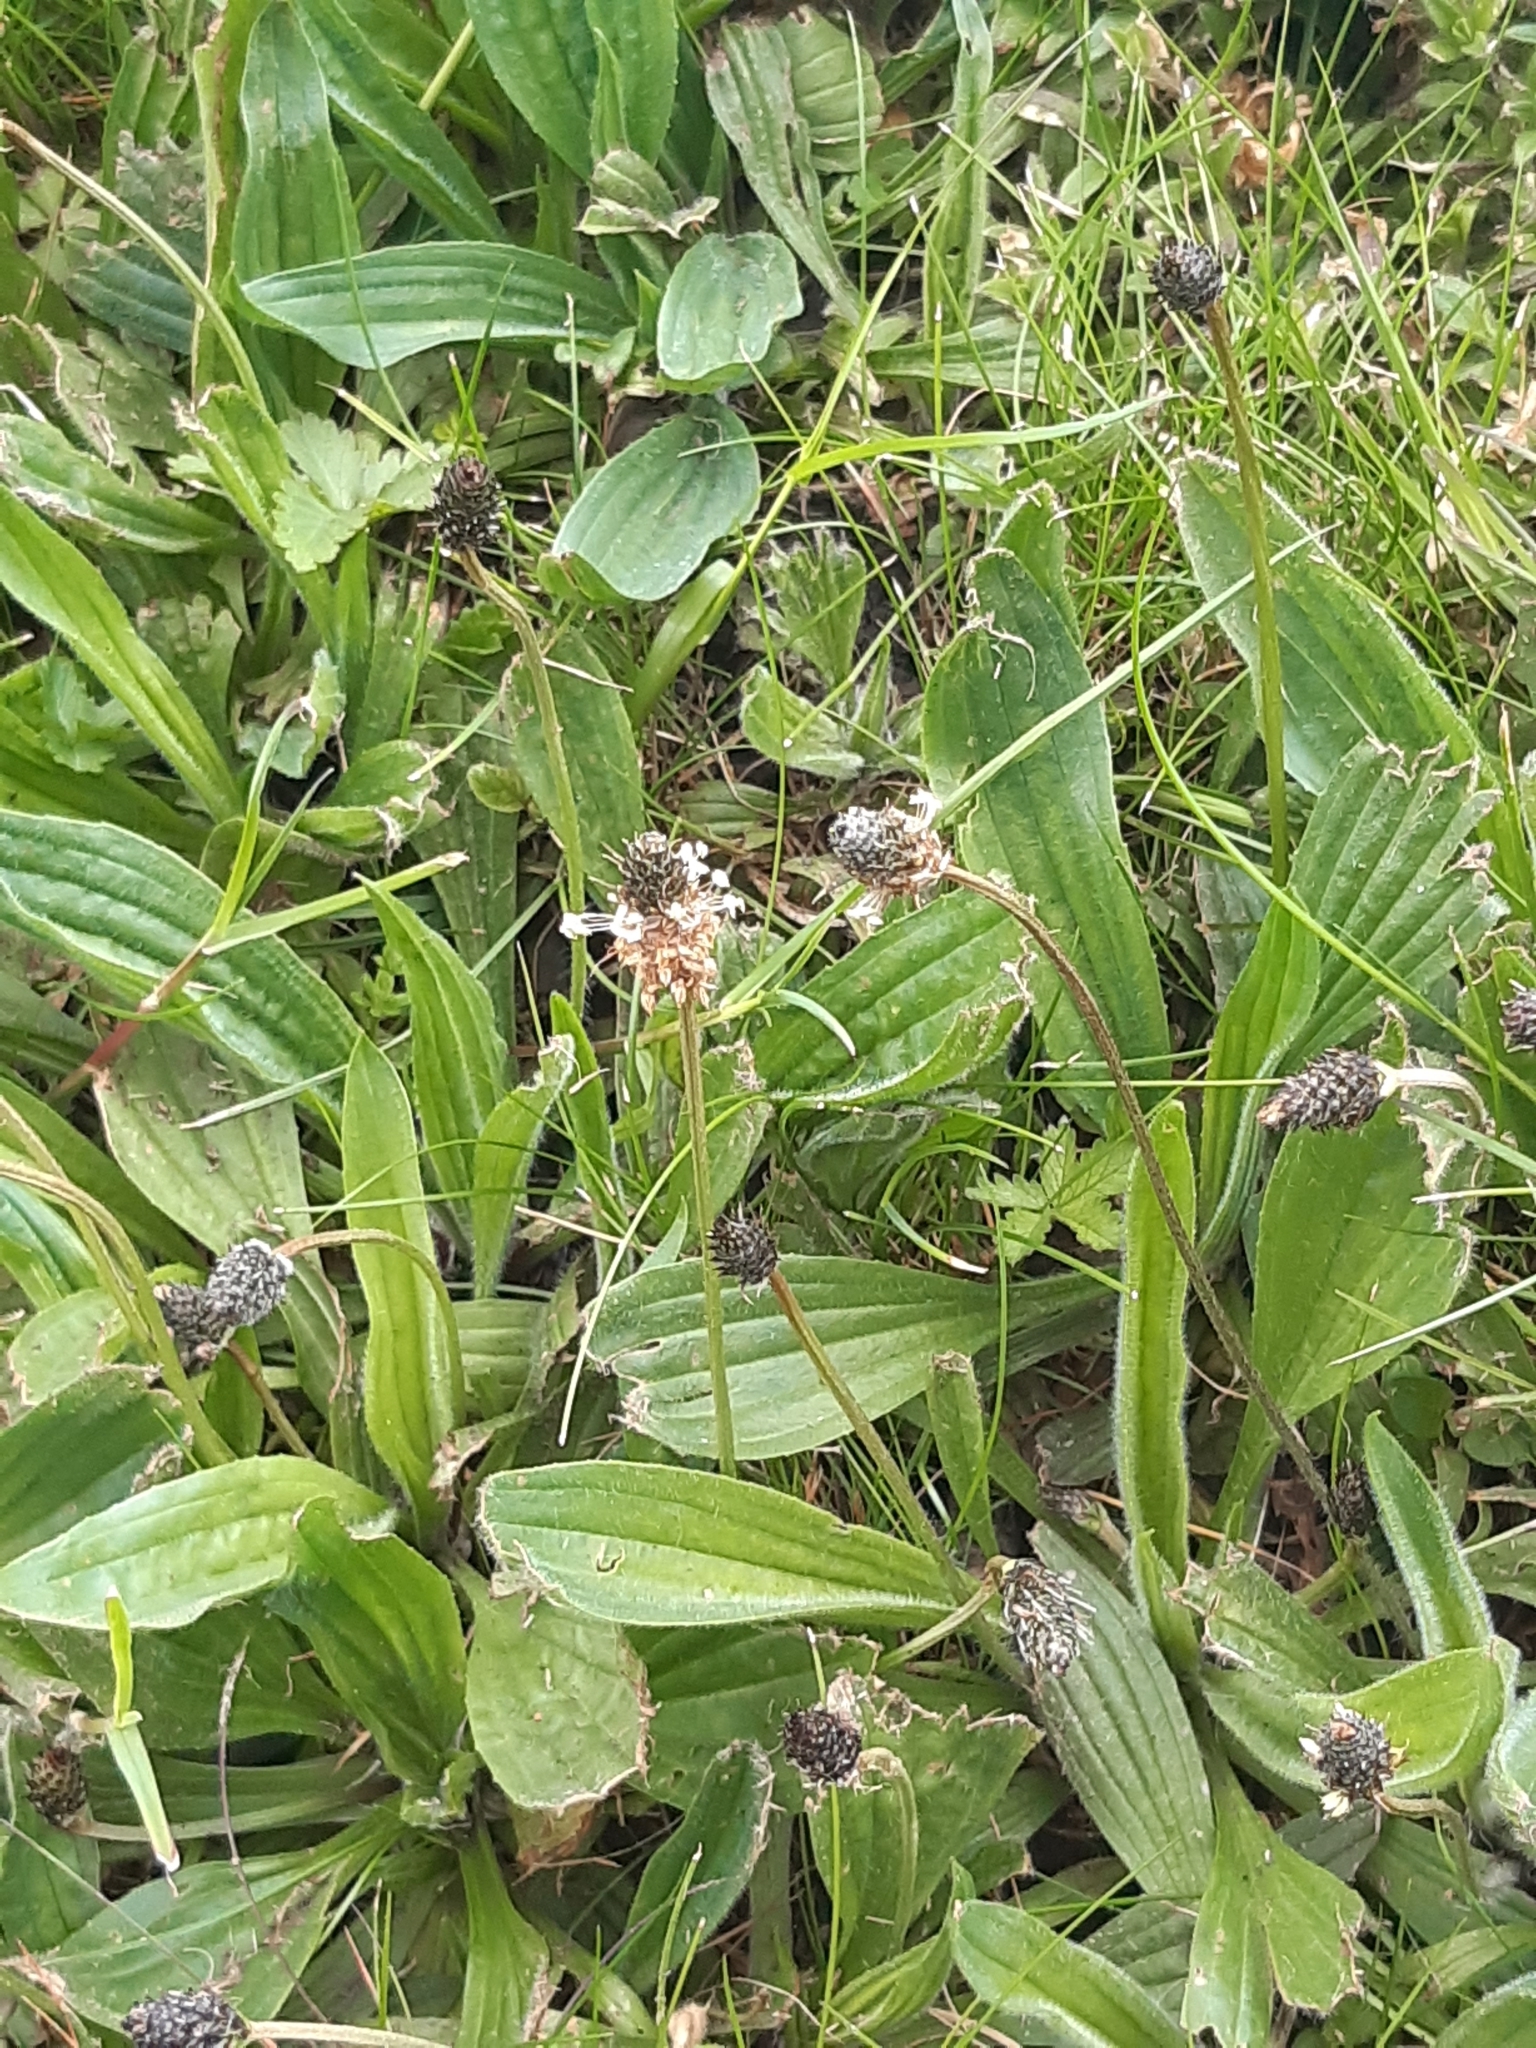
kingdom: Plantae
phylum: Tracheophyta
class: Magnoliopsida
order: Lamiales
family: Plantaginaceae
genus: Plantago
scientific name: Plantago lanceolata
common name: Ribwort plantain
